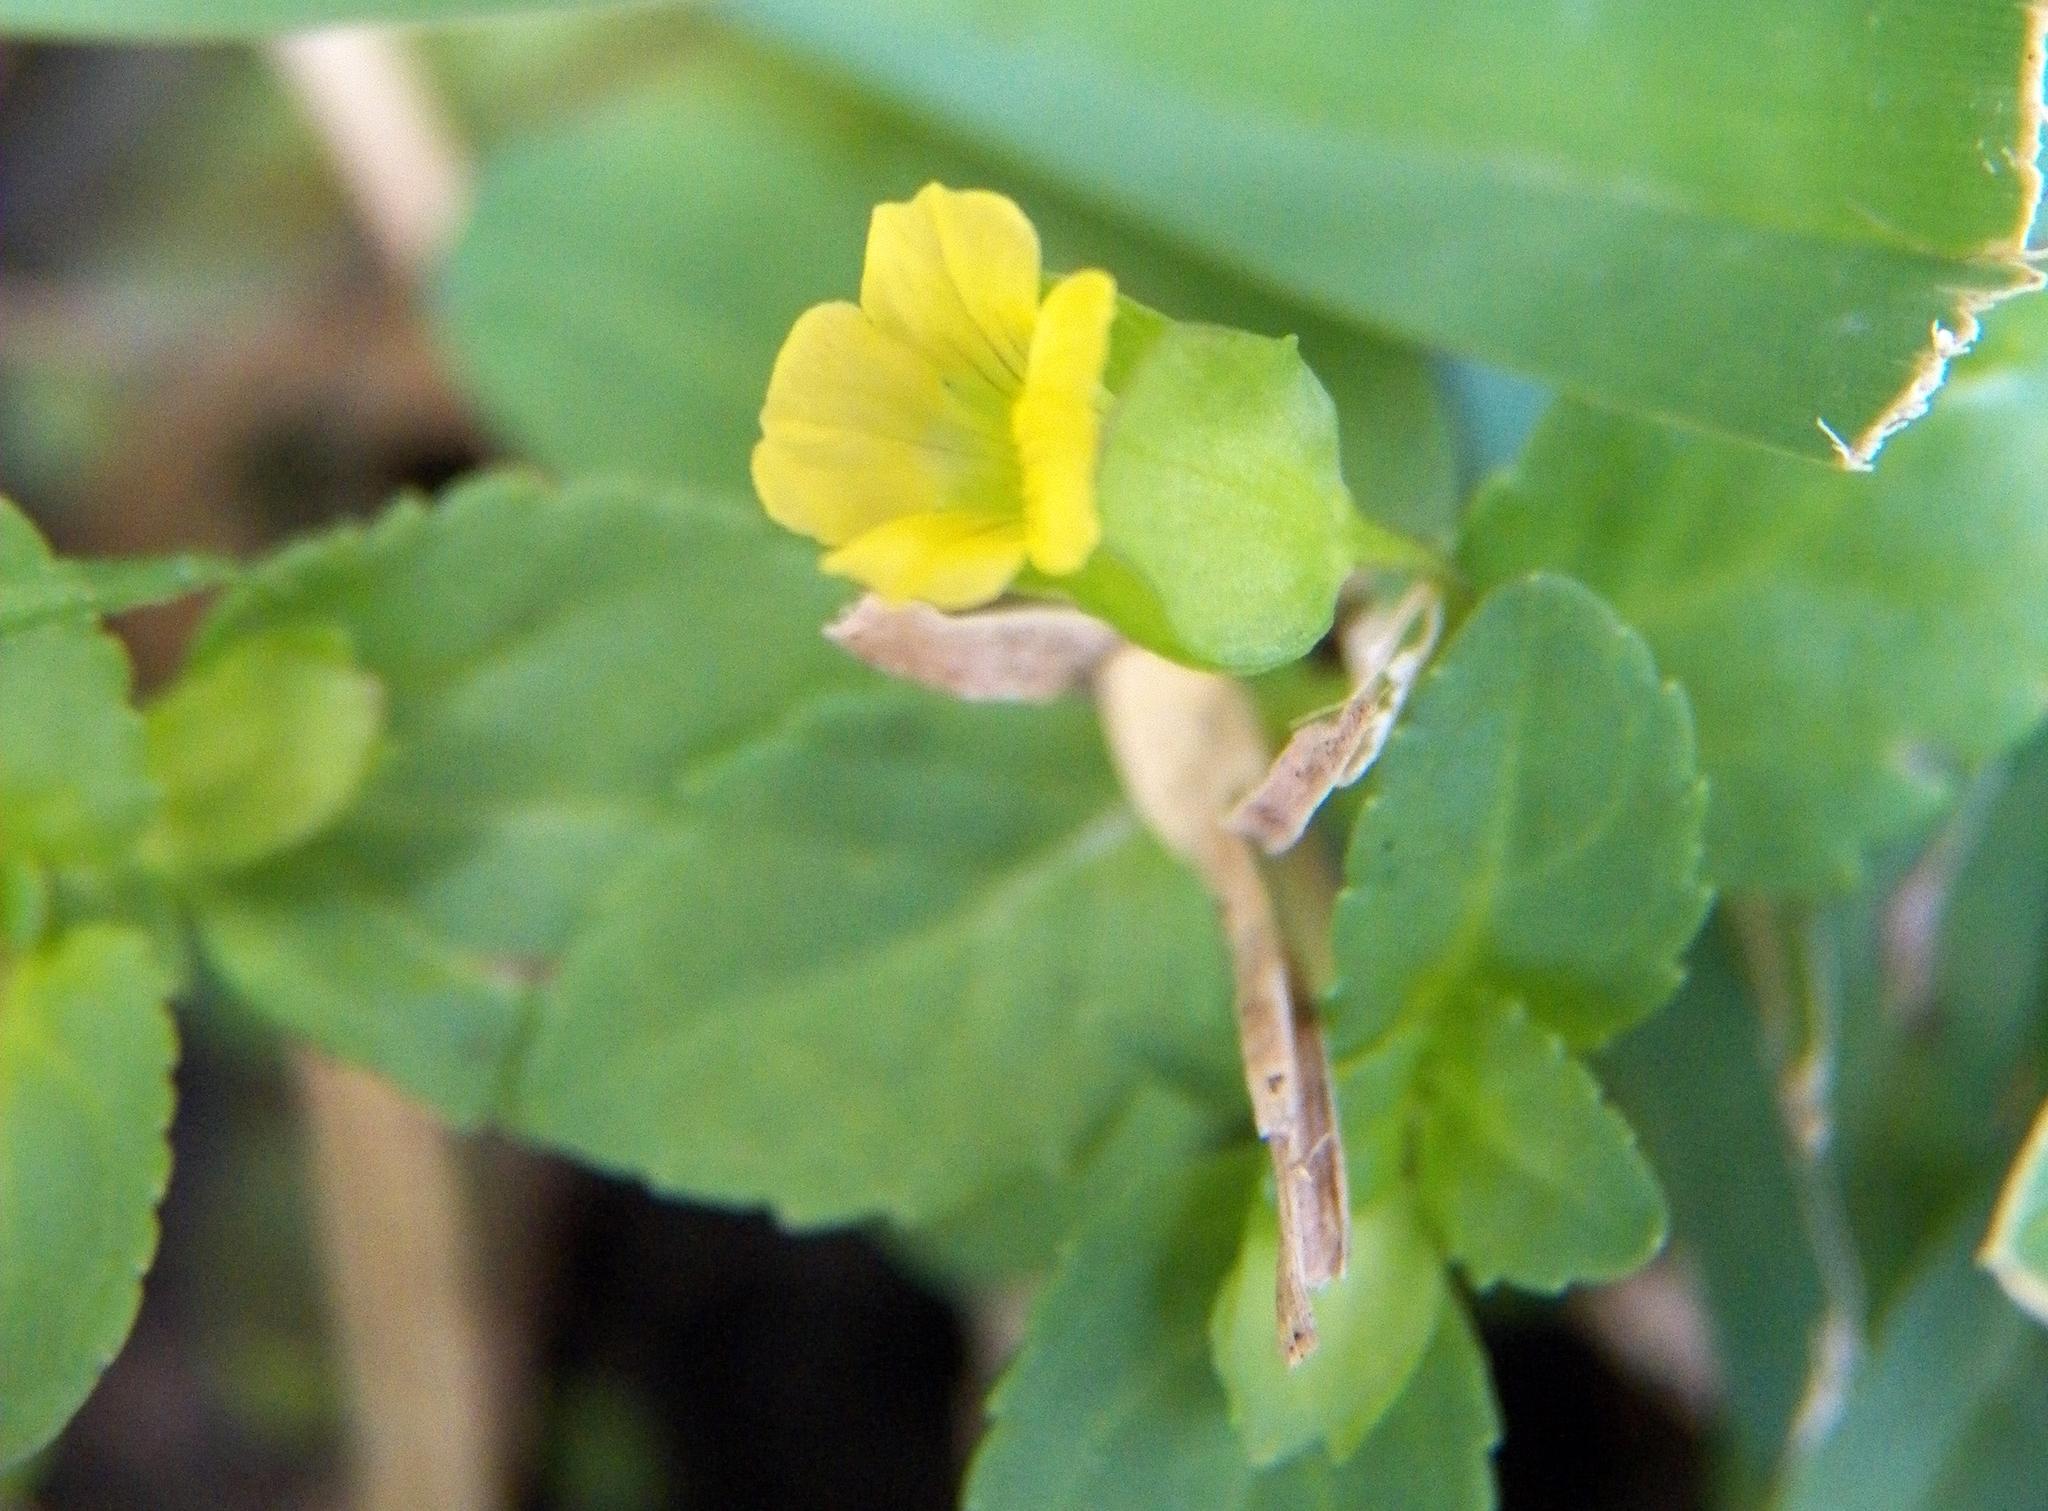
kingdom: Plantae
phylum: Tracheophyta
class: Magnoliopsida
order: Lamiales
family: Plantaginaceae
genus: Mecardonia
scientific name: Mecardonia procumbens
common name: Baby jump-up
